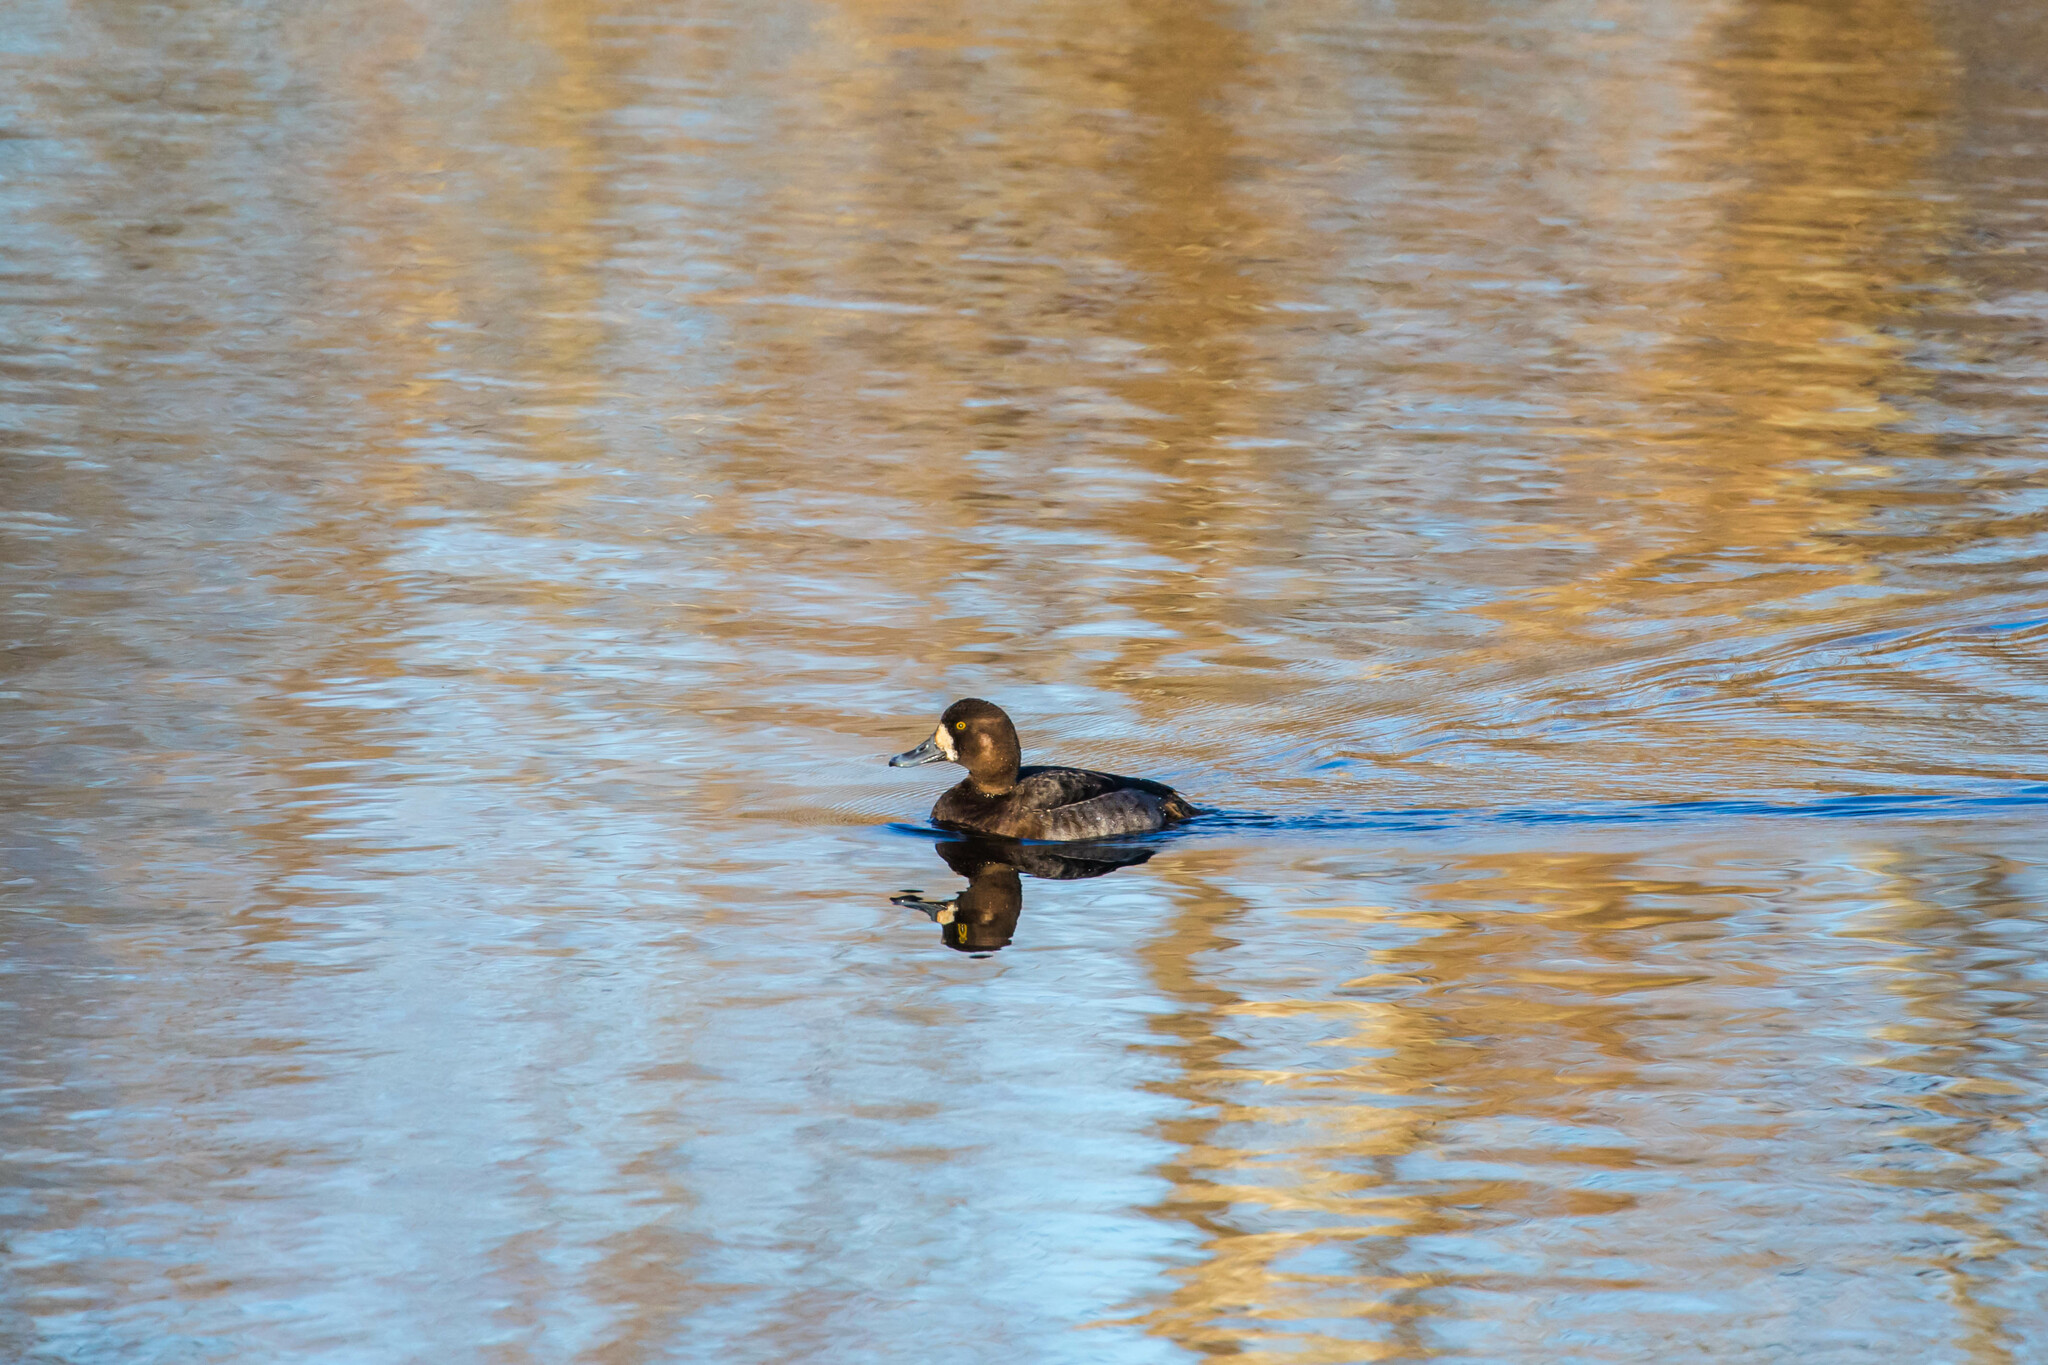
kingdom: Animalia
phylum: Chordata
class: Aves
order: Anseriformes
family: Anatidae
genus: Aythya
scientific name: Aythya marila
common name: Greater scaup
